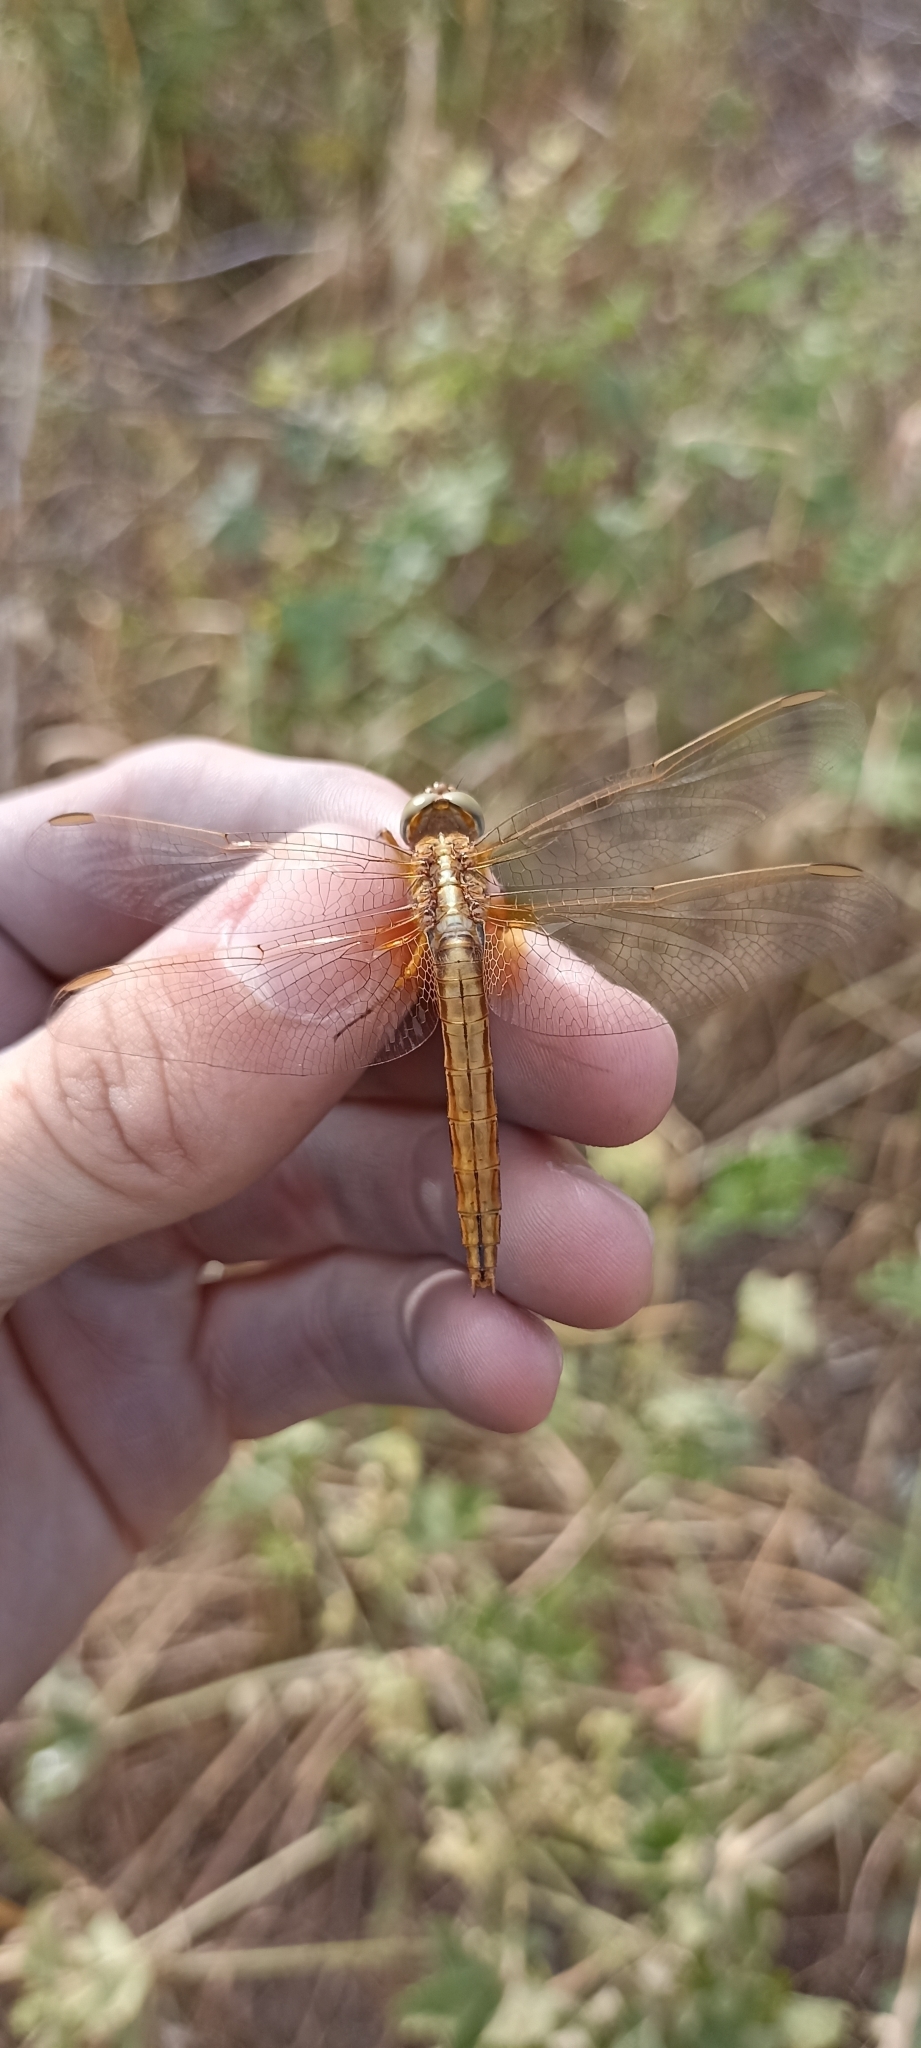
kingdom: Animalia
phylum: Arthropoda
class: Insecta
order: Odonata
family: Libellulidae
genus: Crocothemis
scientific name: Crocothemis erythraea
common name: Scarlet dragonfly
